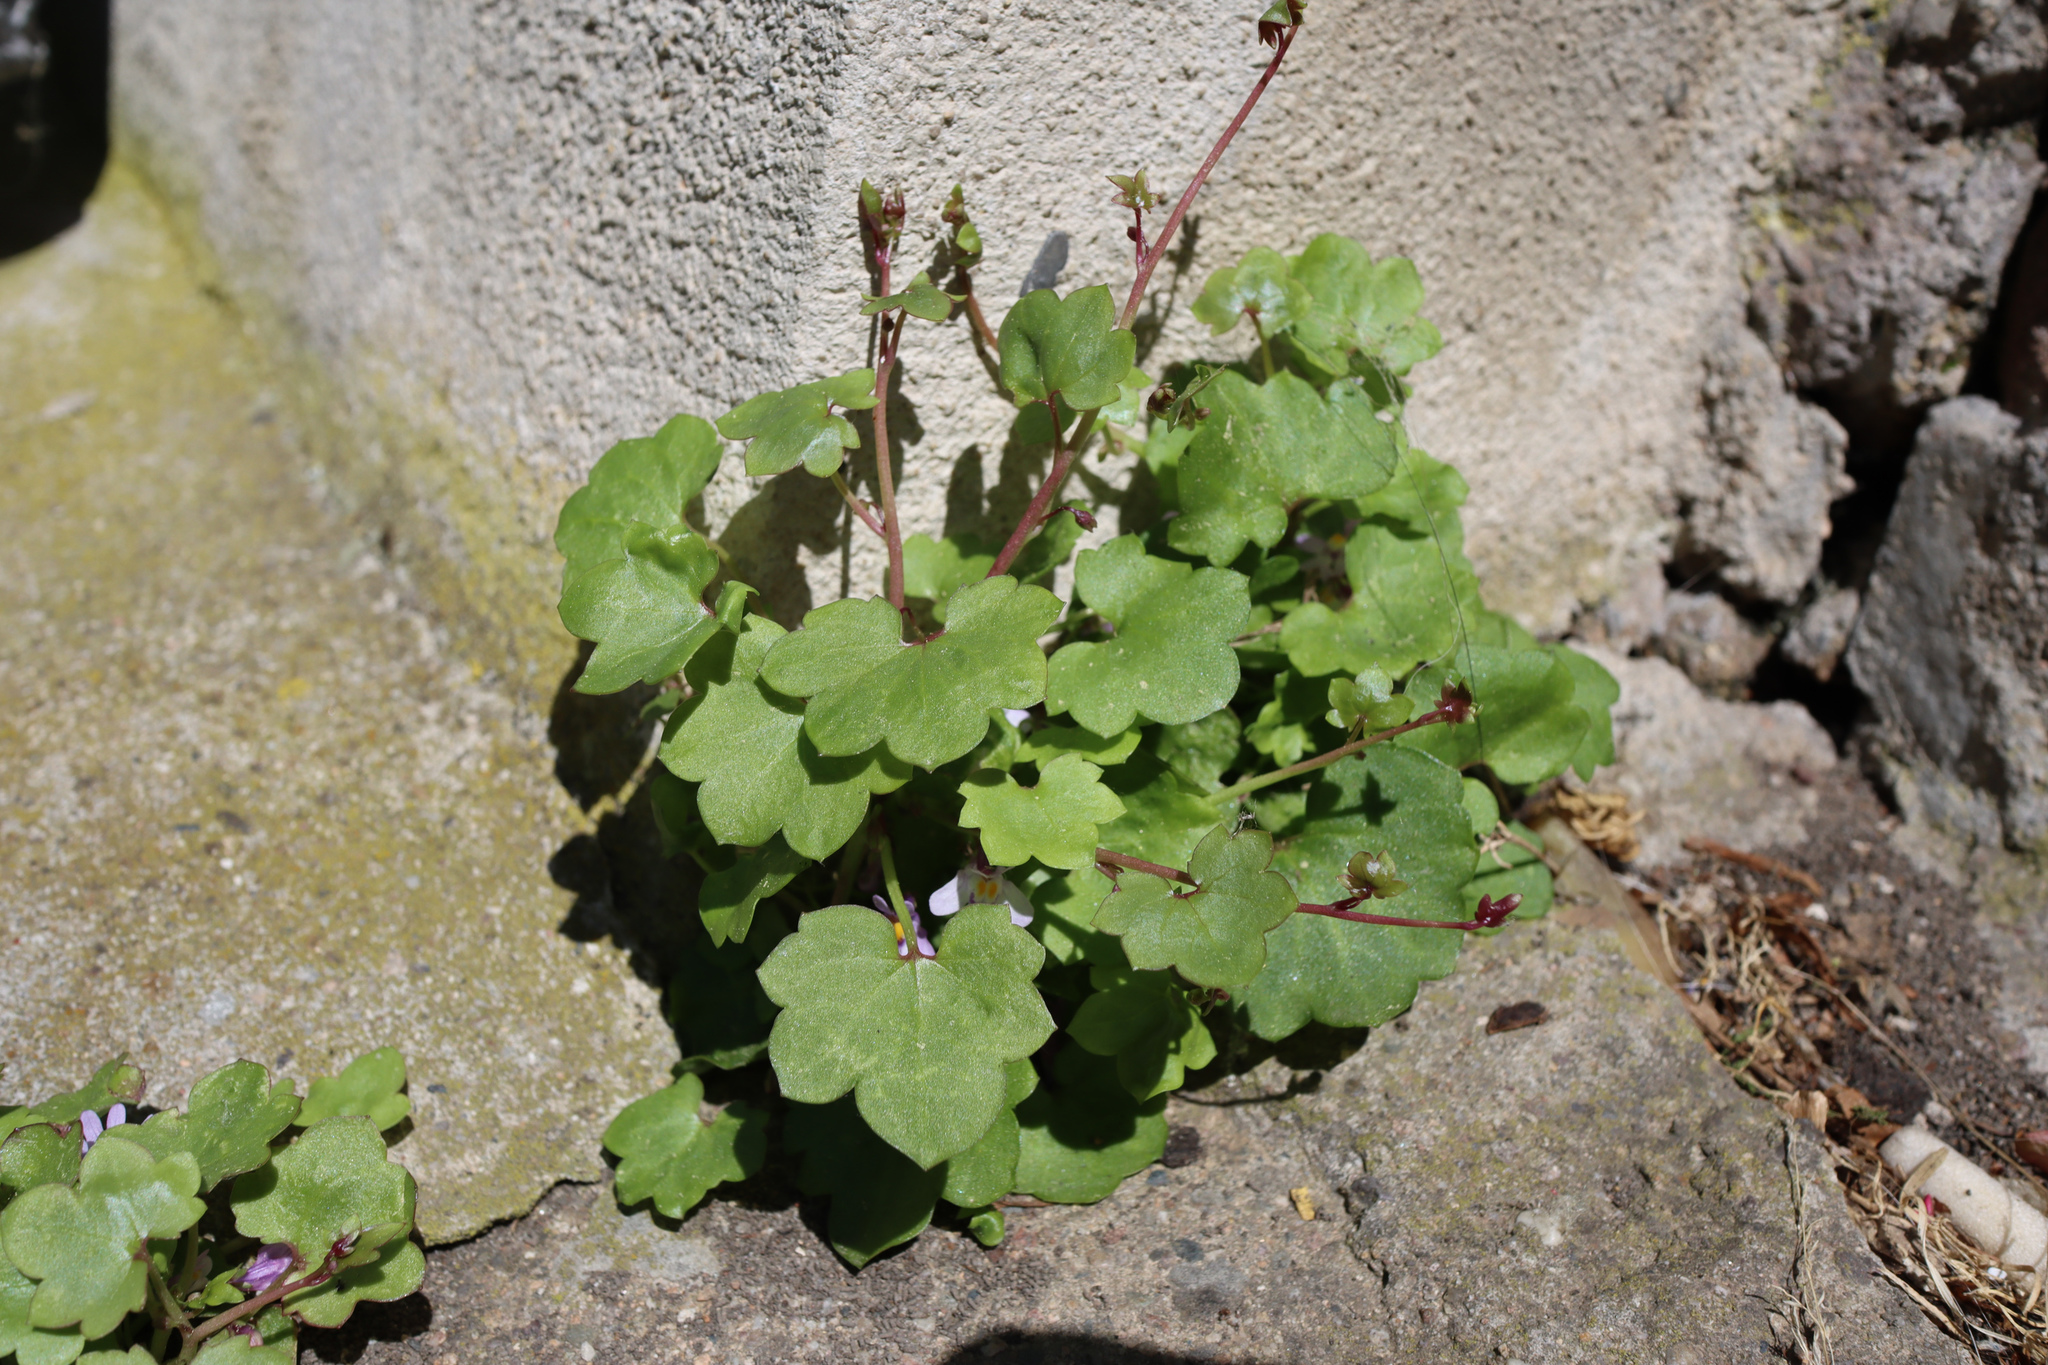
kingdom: Plantae
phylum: Tracheophyta
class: Magnoliopsida
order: Lamiales
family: Plantaginaceae
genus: Cymbalaria
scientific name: Cymbalaria muralis
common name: Ivy-leaved toadflax
